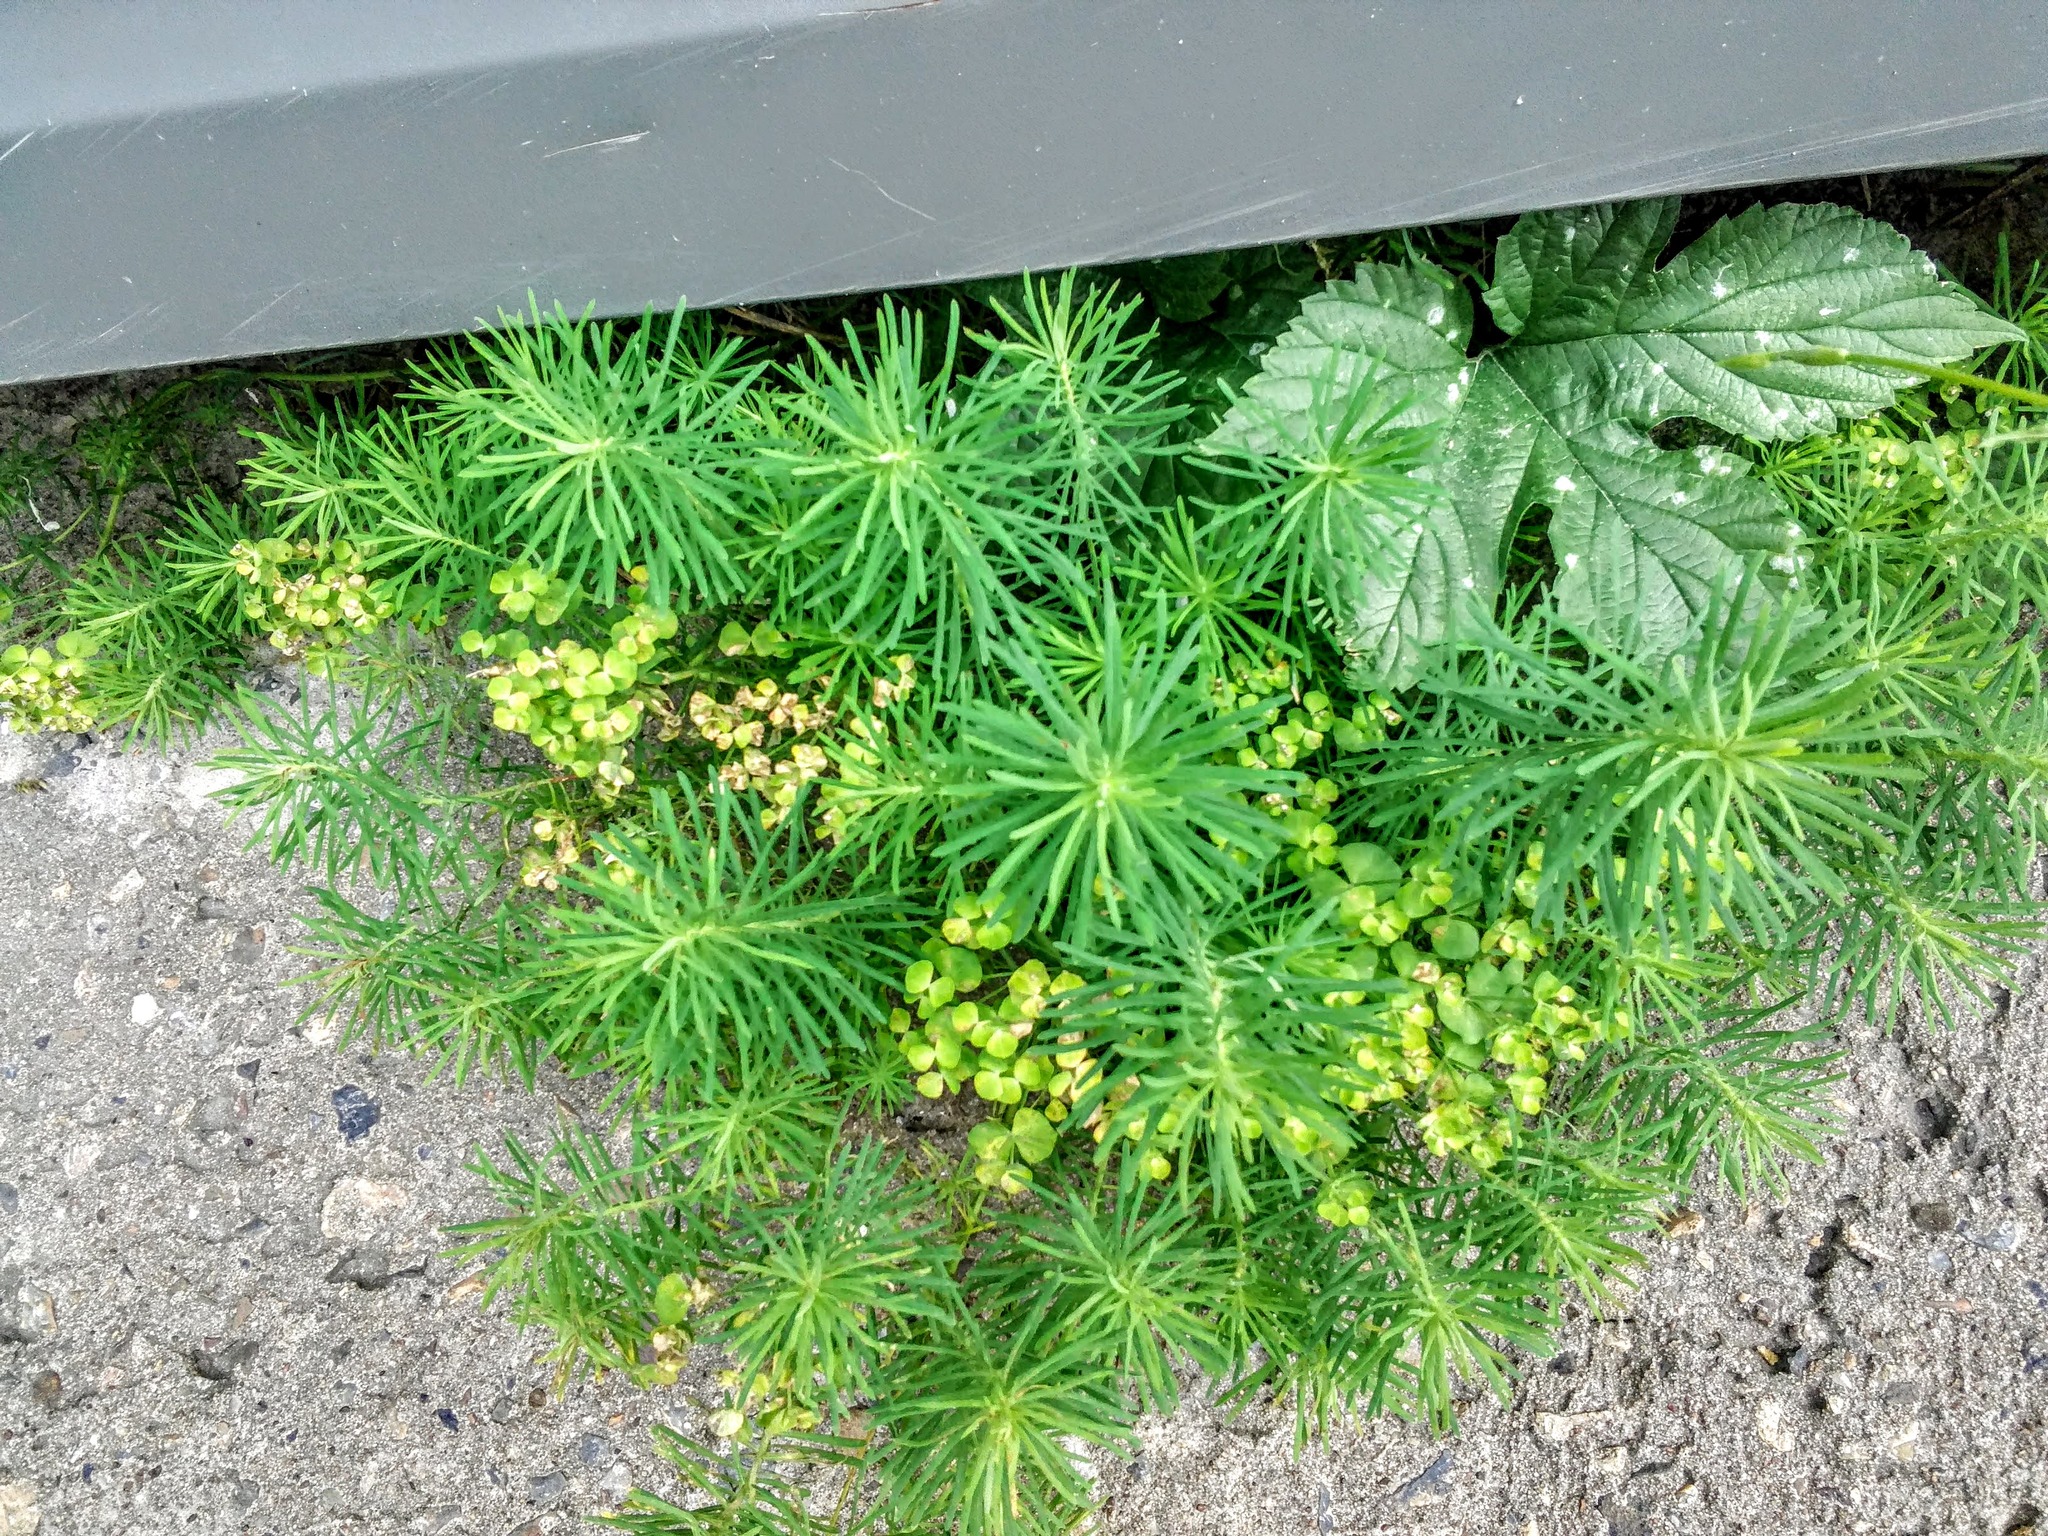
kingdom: Plantae
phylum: Tracheophyta
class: Magnoliopsida
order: Malpighiales
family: Euphorbiaceae
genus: Euphorbia
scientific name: Euphorbia cyparissias
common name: Cypress spurge
